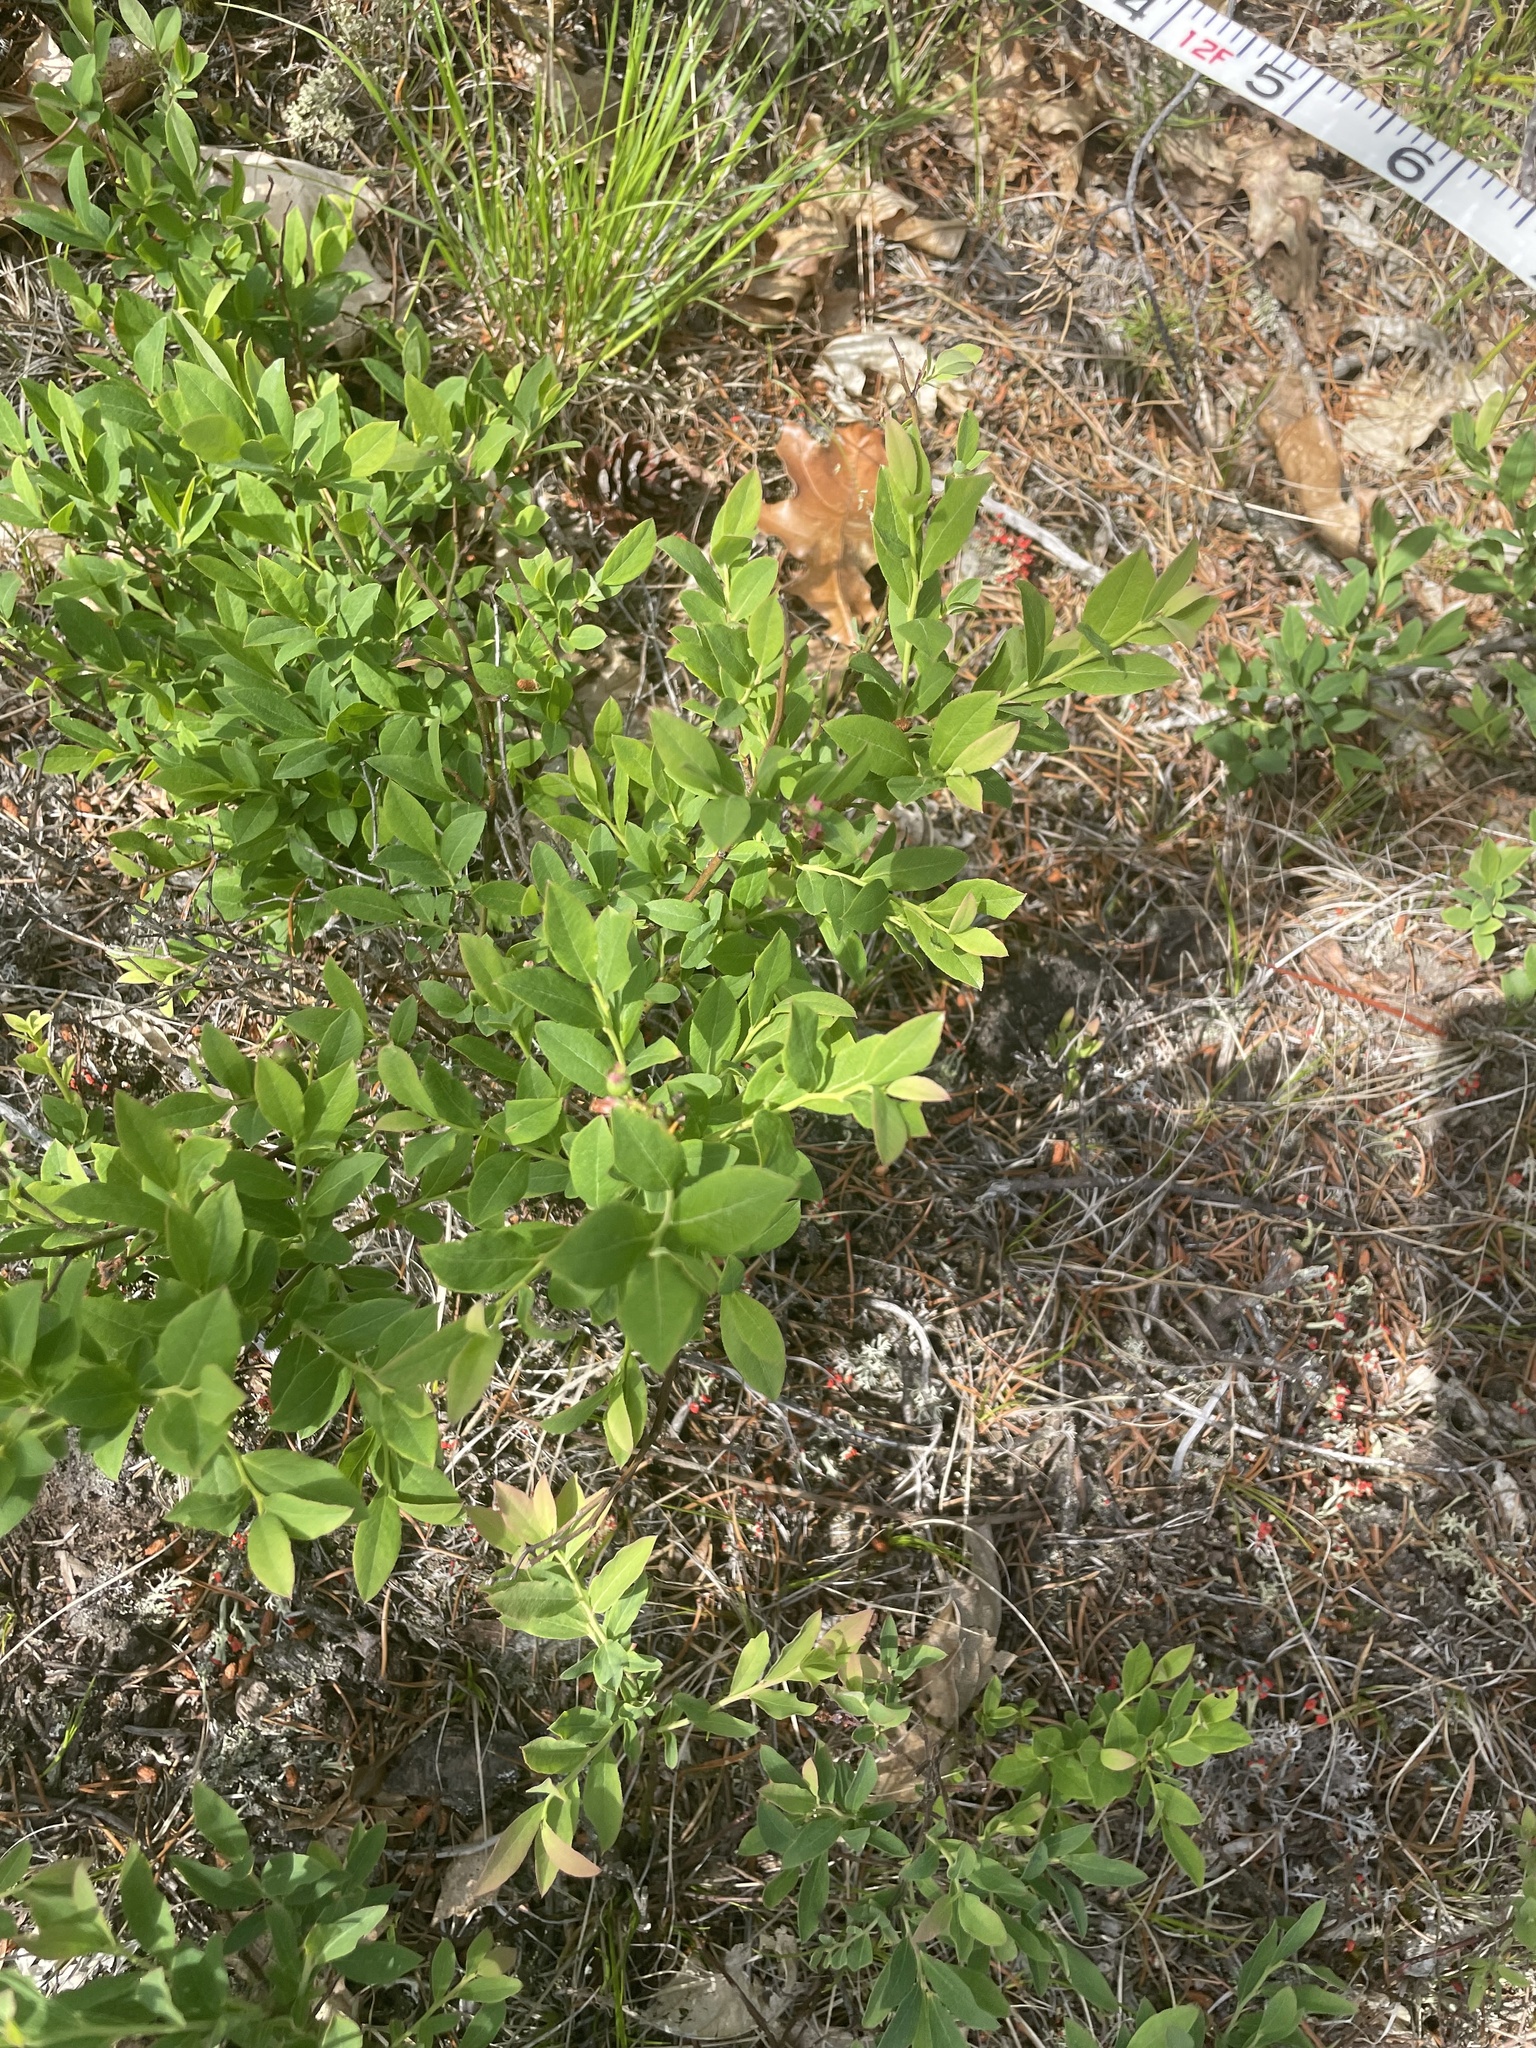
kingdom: Plantae
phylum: Tracheophyta
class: Magnoliopsida
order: Ericales
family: Ericaceae
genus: Vaccinium
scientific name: Vaccinium angustifolium
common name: Early lowbush blueberry
